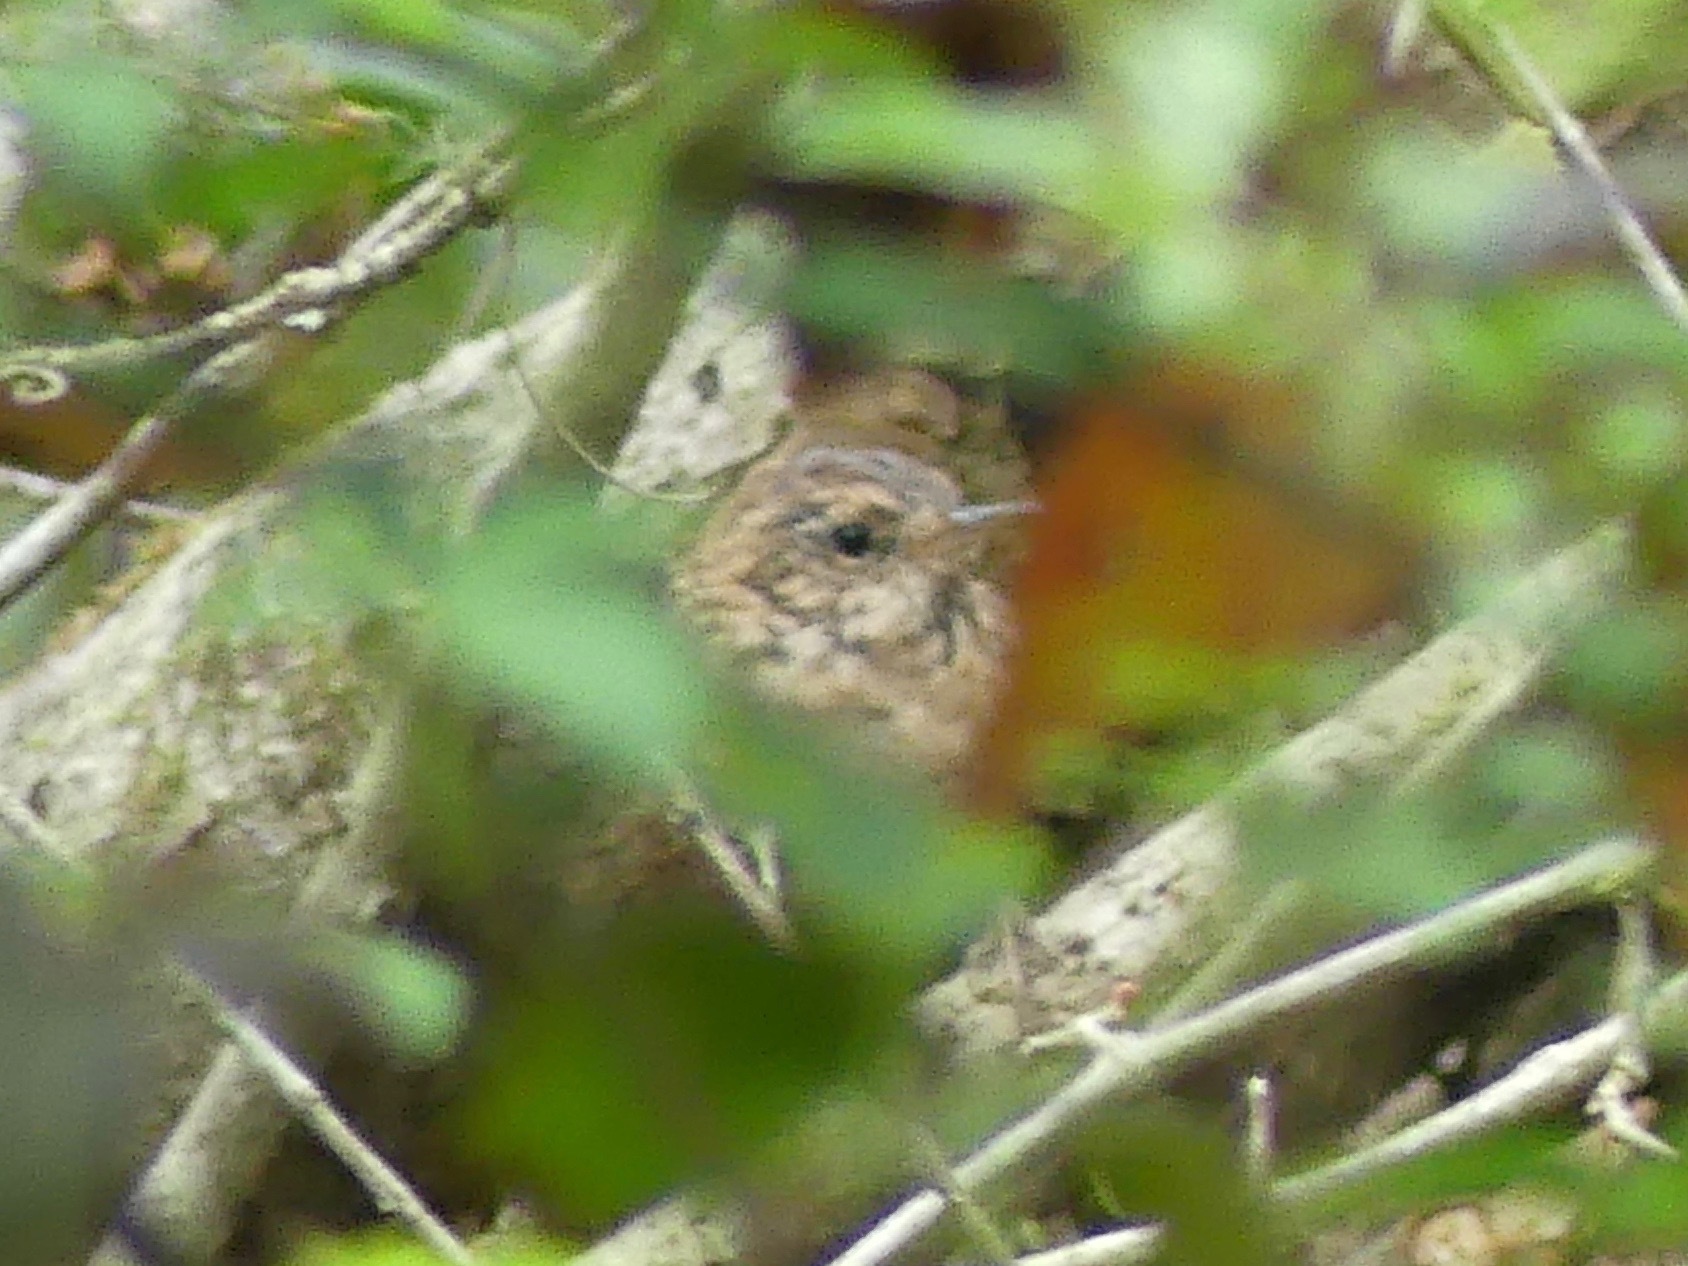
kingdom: Animalia
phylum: Chordata
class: Aves
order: Passeriformes
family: Troglodytidae
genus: Troglodytes
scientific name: Troglodytes hiemalis
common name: Winter wren
